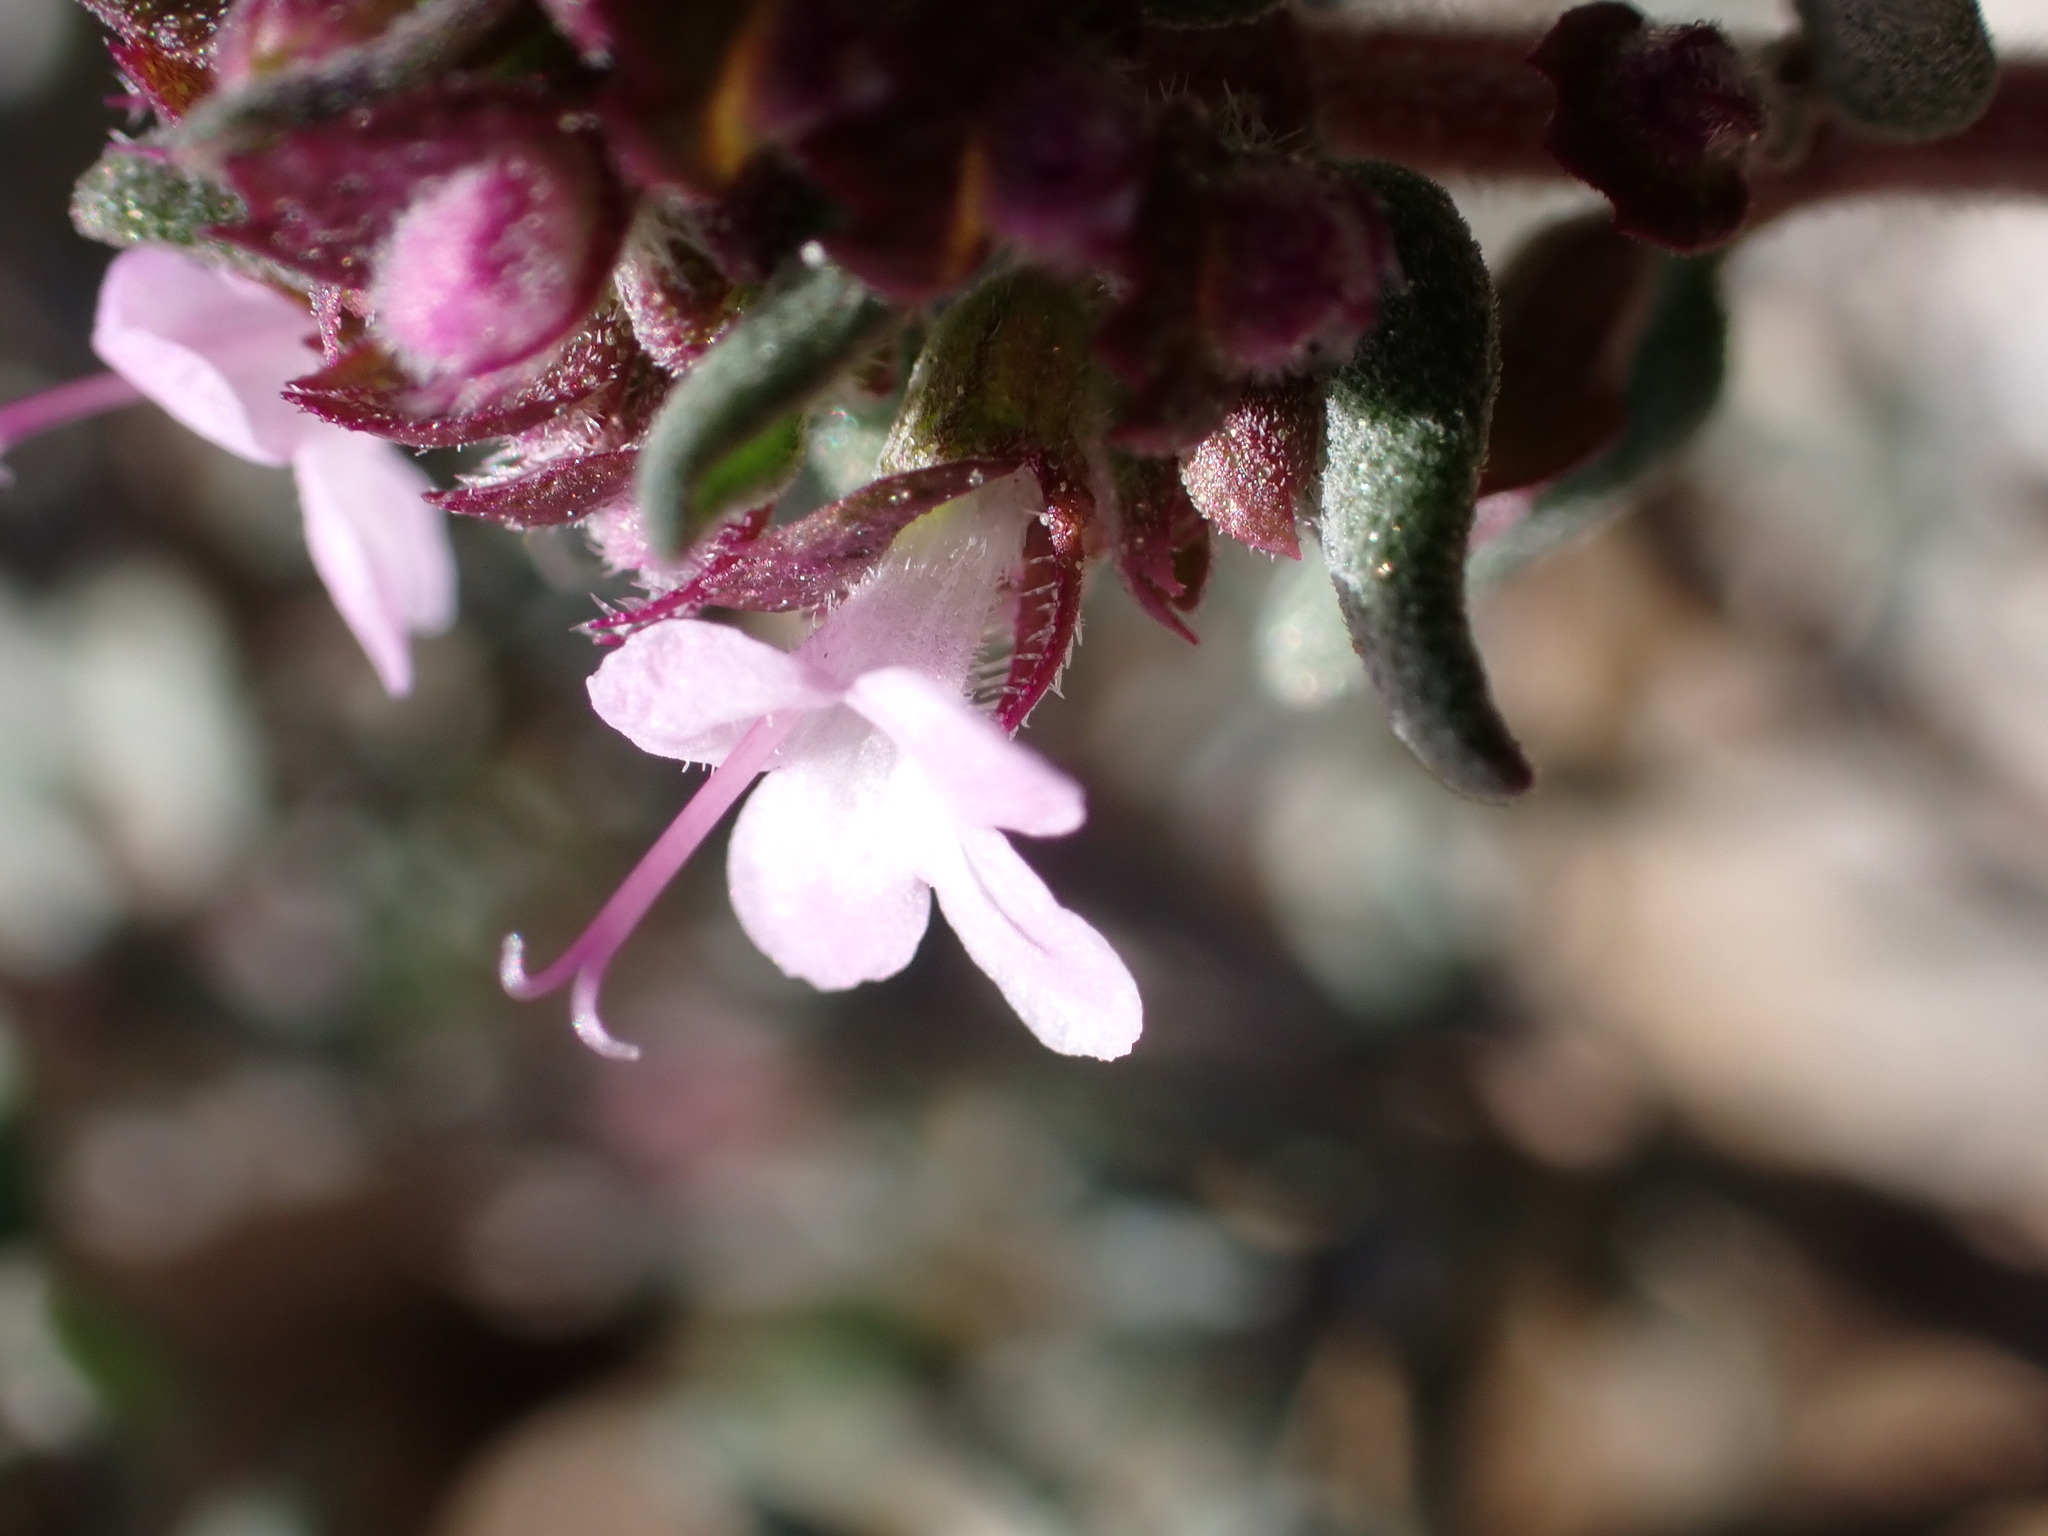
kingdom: Plantae
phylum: Tracheophyta
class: Magnoliopsida
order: Lamiales
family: Lamiaceae
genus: Thymus
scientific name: Thymus vulgaris
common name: Garden thyme
